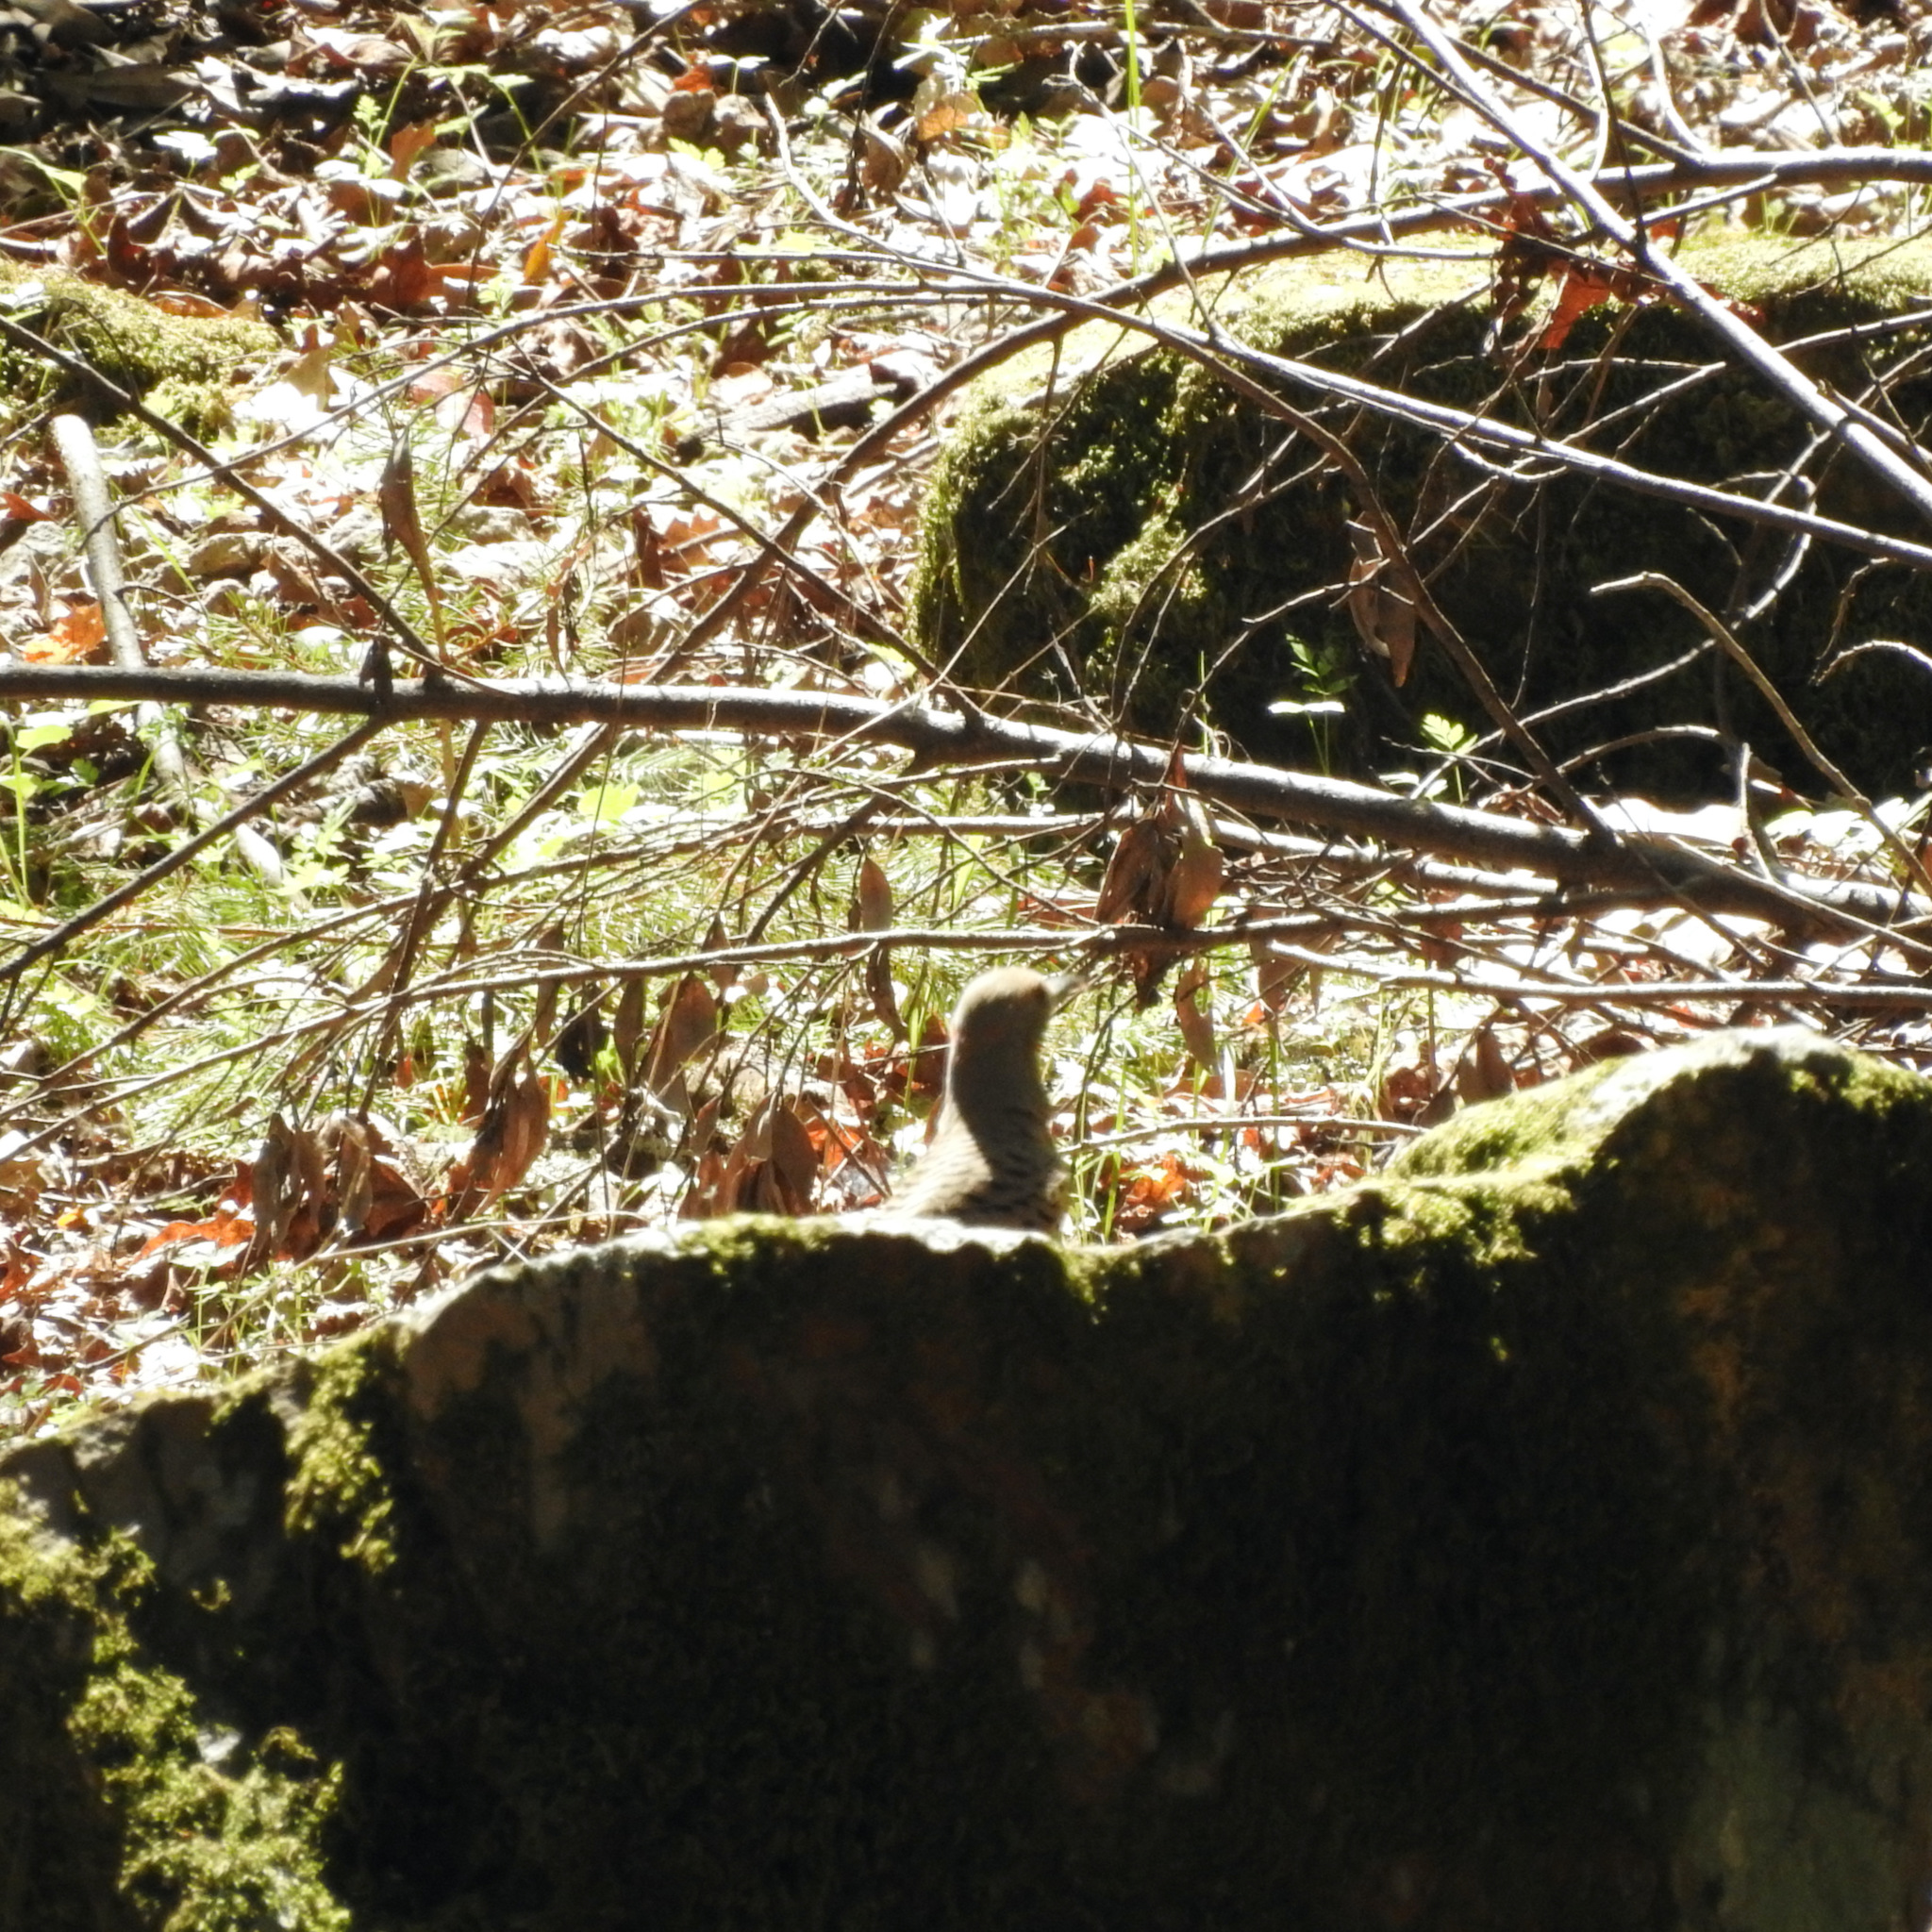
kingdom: Animalia
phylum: Chordata
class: Aves
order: Piciformes
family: Picidae
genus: Colaptes
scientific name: Colaptes auratus
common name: Northern flicker
